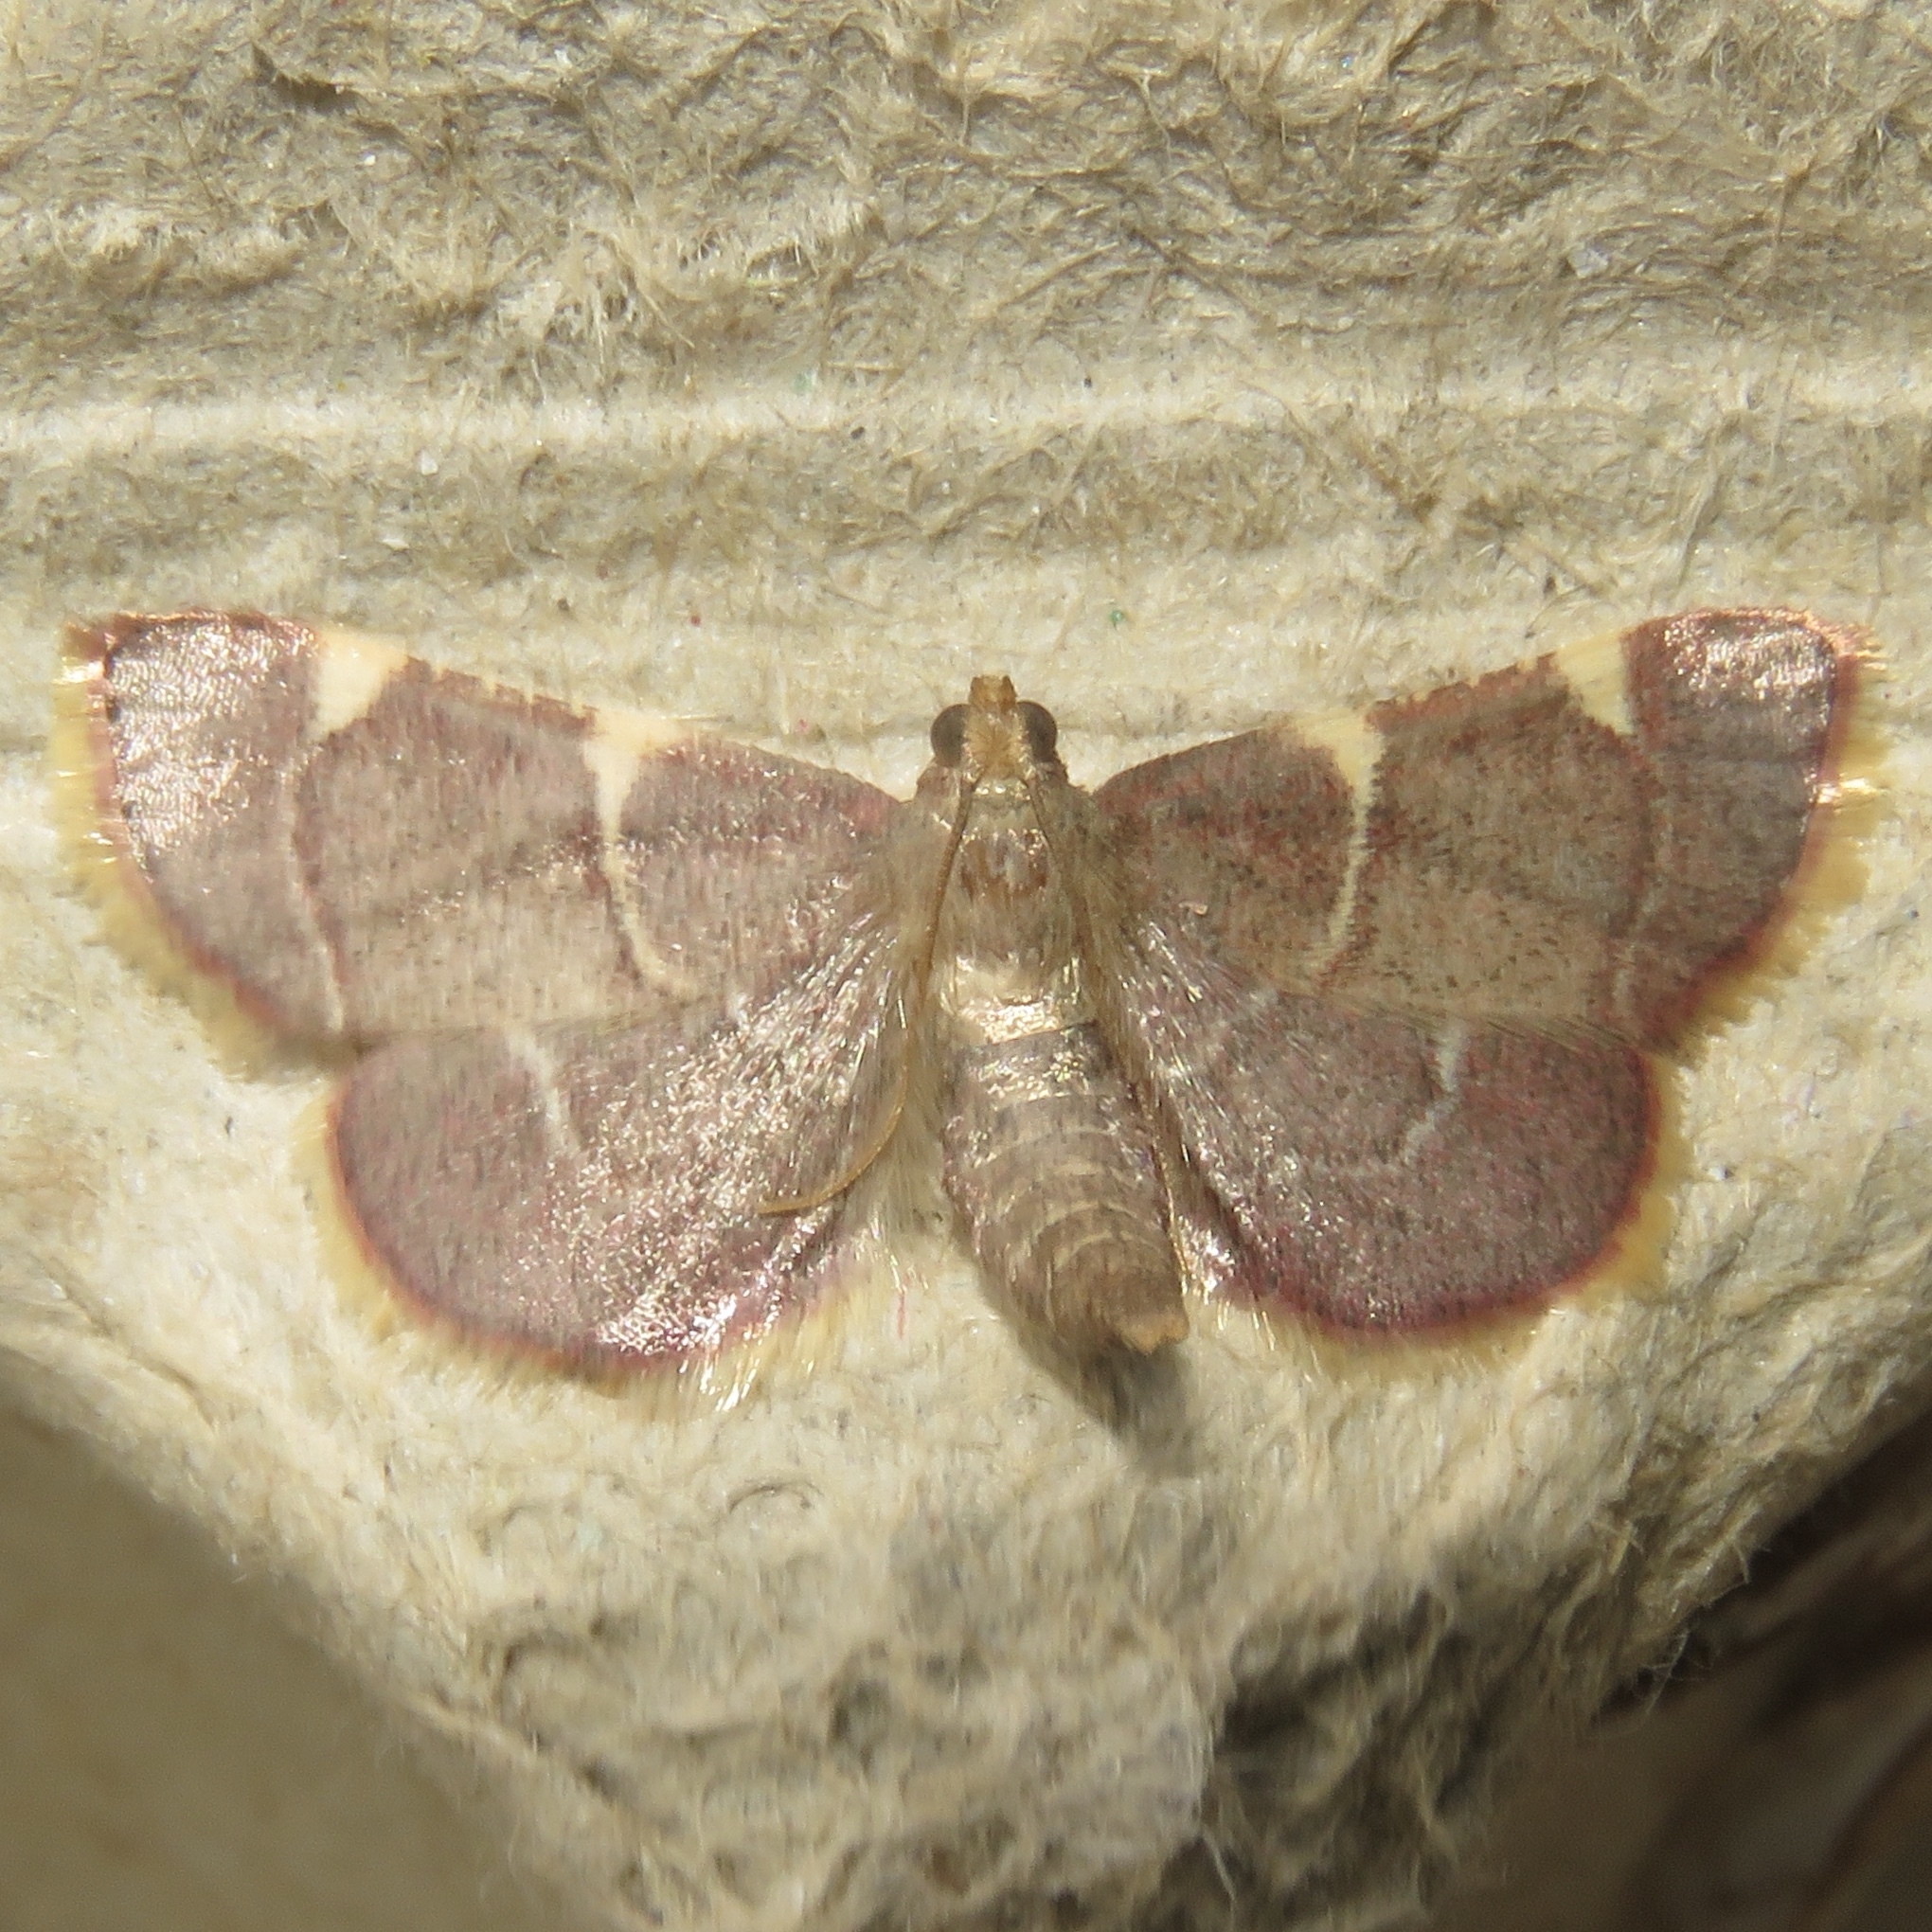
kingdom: Animalia
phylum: Arthropoda
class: Insecta
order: Lepidoptera
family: Pyralidae
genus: Hypsopygia
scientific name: Hypsopygia olinalis
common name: Yellow-fringed dolichomia moth
